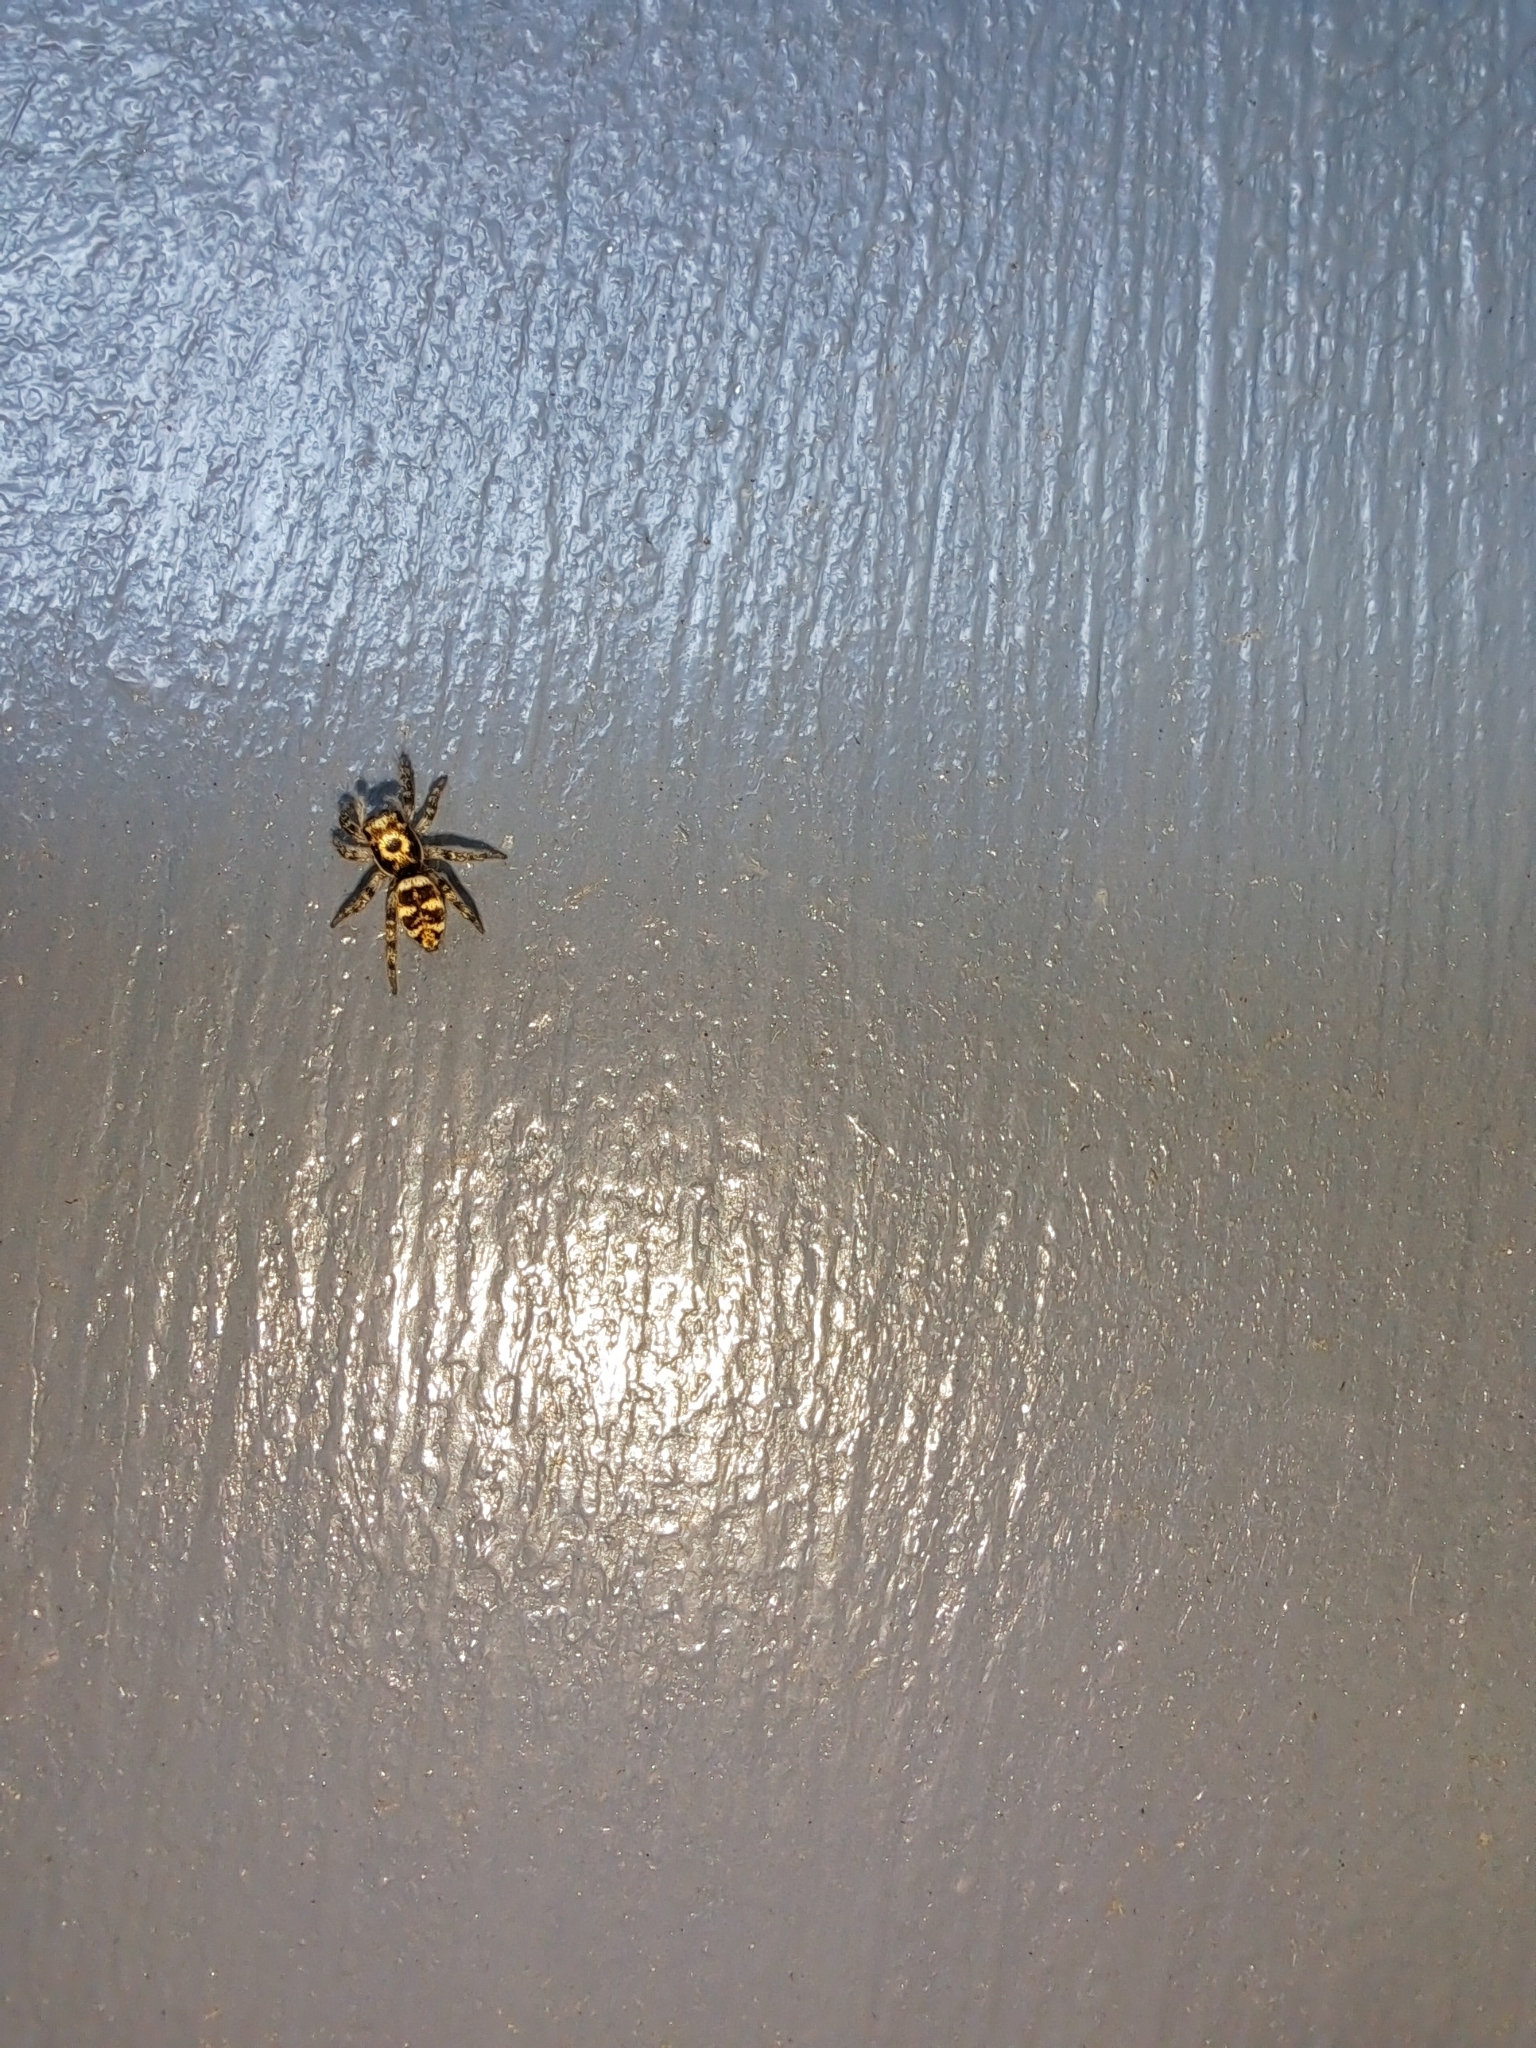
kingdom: Animalia
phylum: Arthropoda
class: Arachnida
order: Araneae
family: Salticidae
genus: Salticus
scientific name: Salticus scenicus
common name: Zebra jumper
